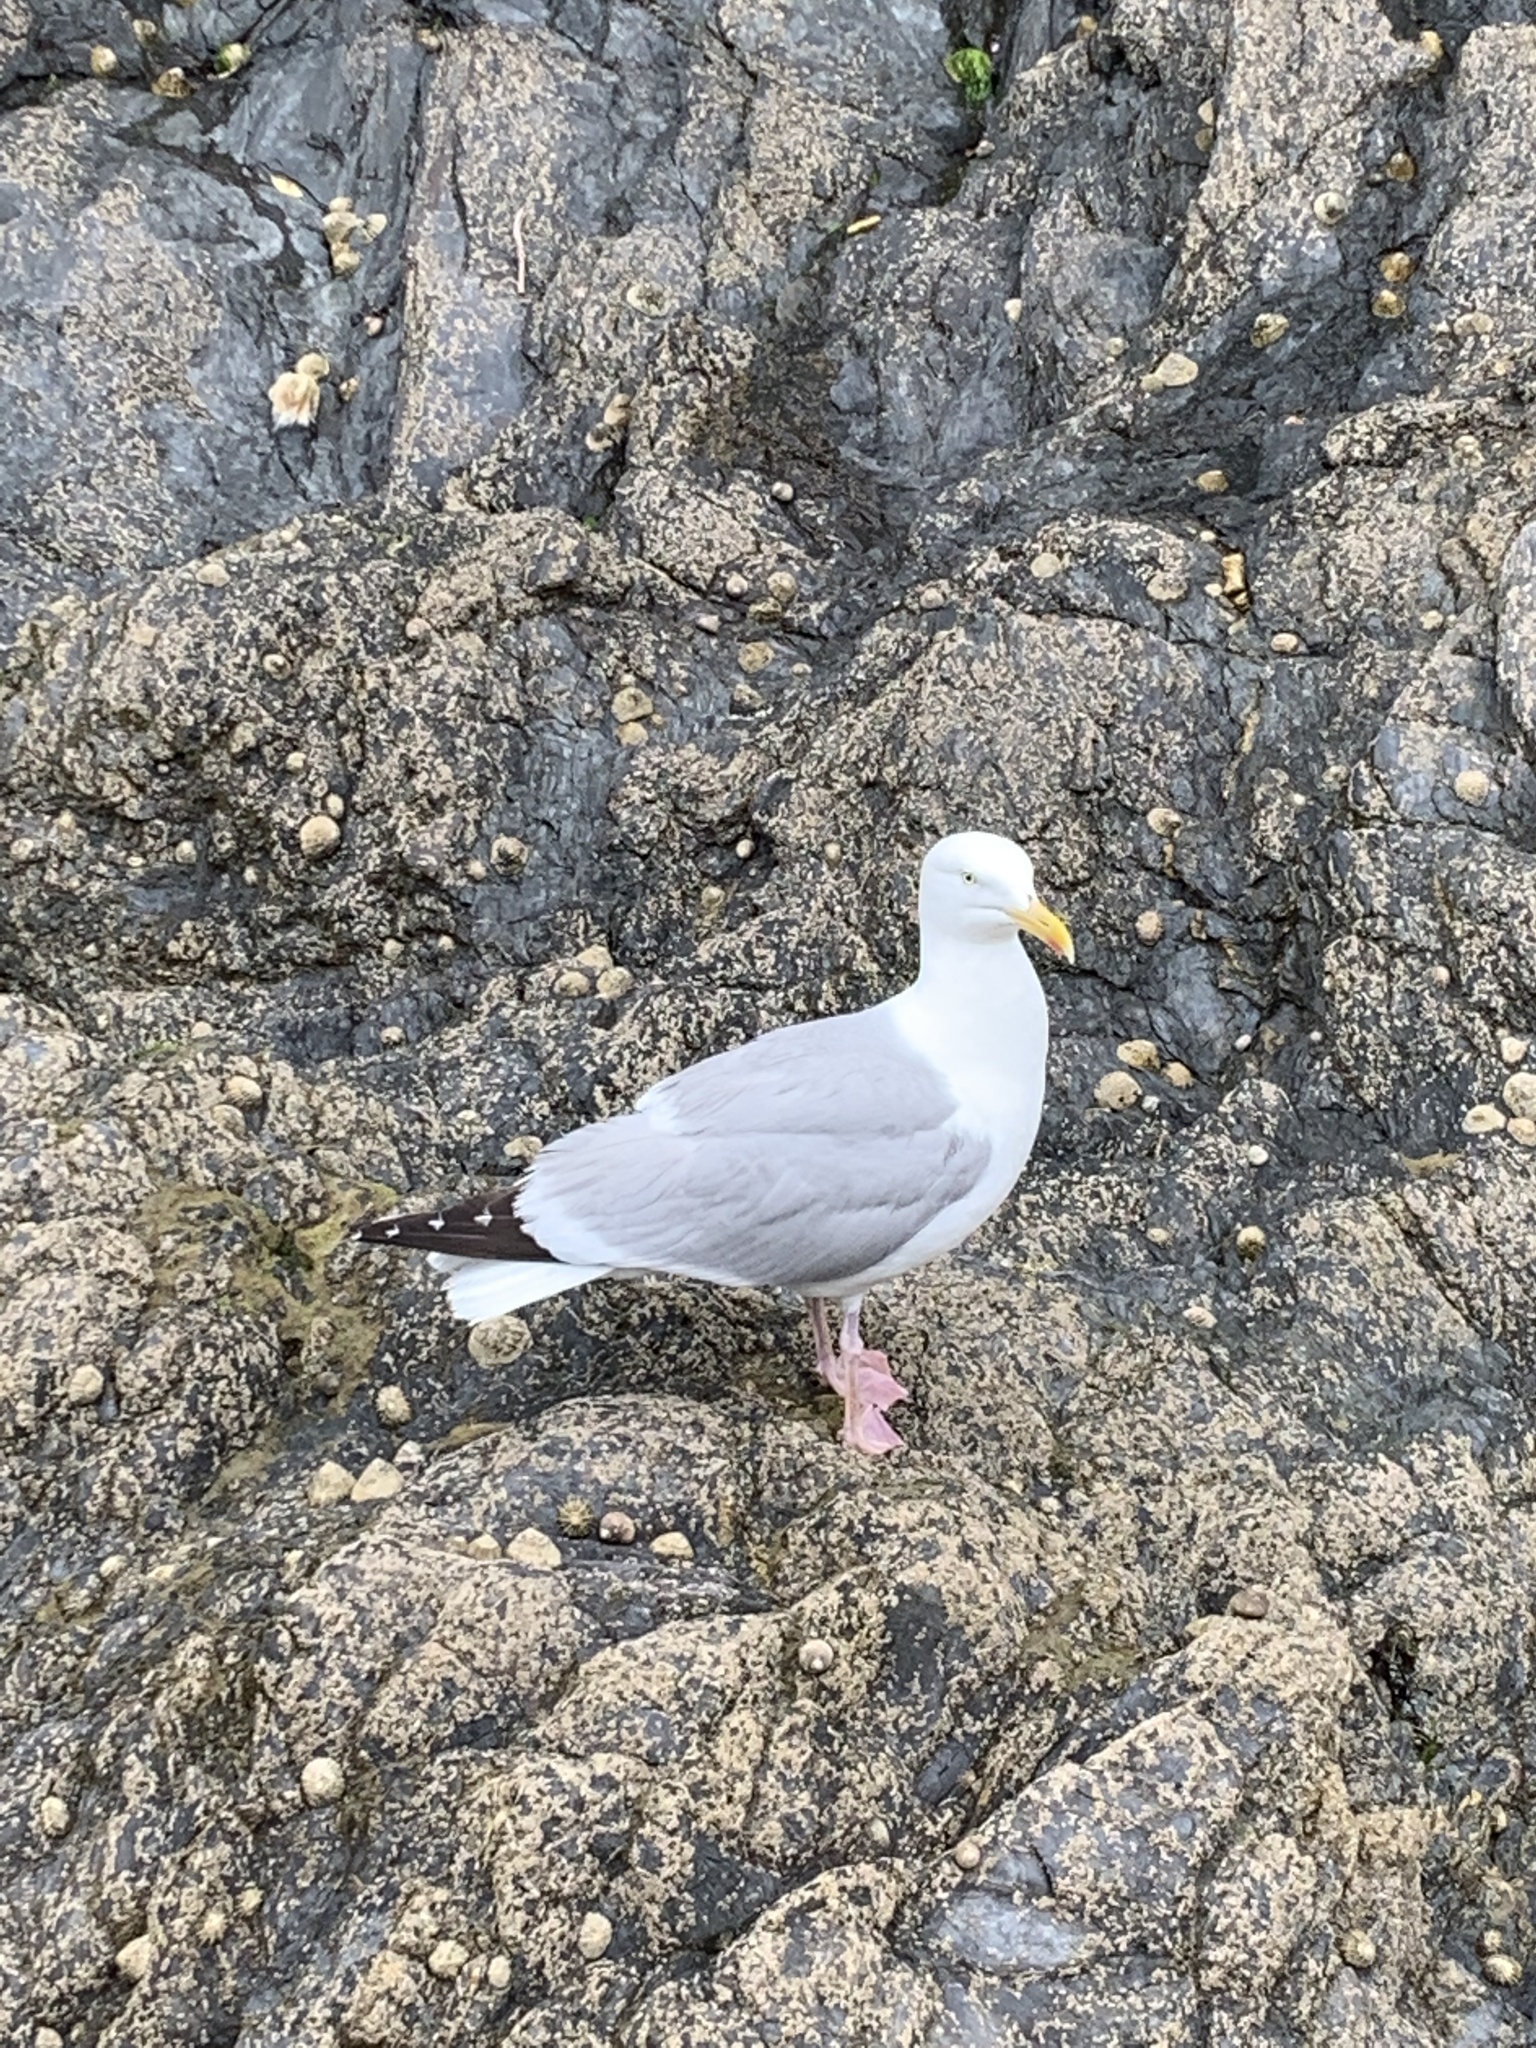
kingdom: Animalia
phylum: Chordata
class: Aves
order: Charadriiformes
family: Laridae
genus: Larus
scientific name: Larus argentatus
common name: Herring gull
